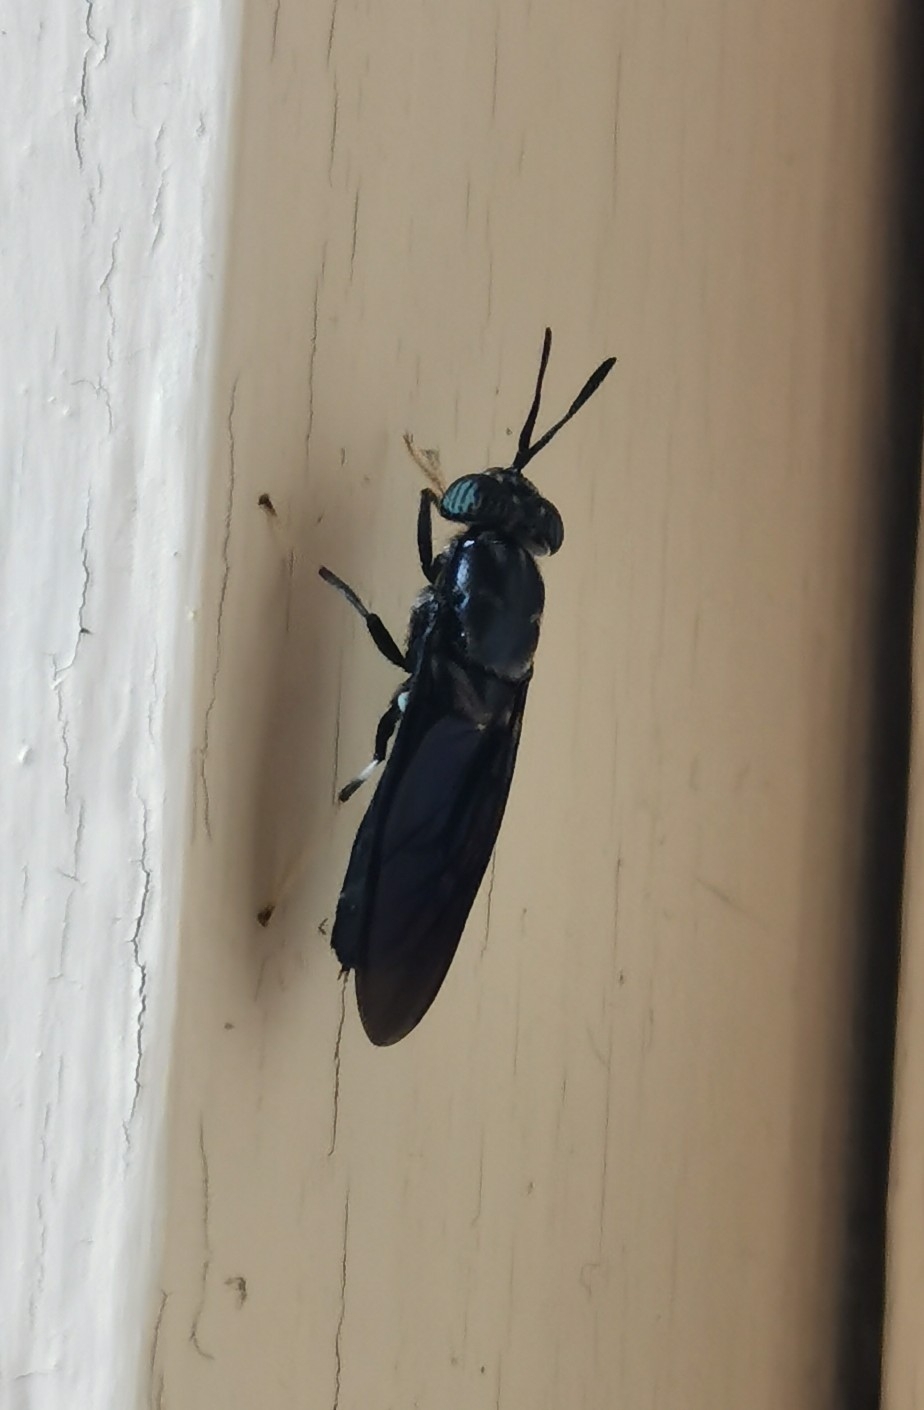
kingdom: Animalia
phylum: Arthropoda
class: Insecta
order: Diptera
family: Stratiomyidae
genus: Hermetia
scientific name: Hermetia illucens
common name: Black soldier fly
